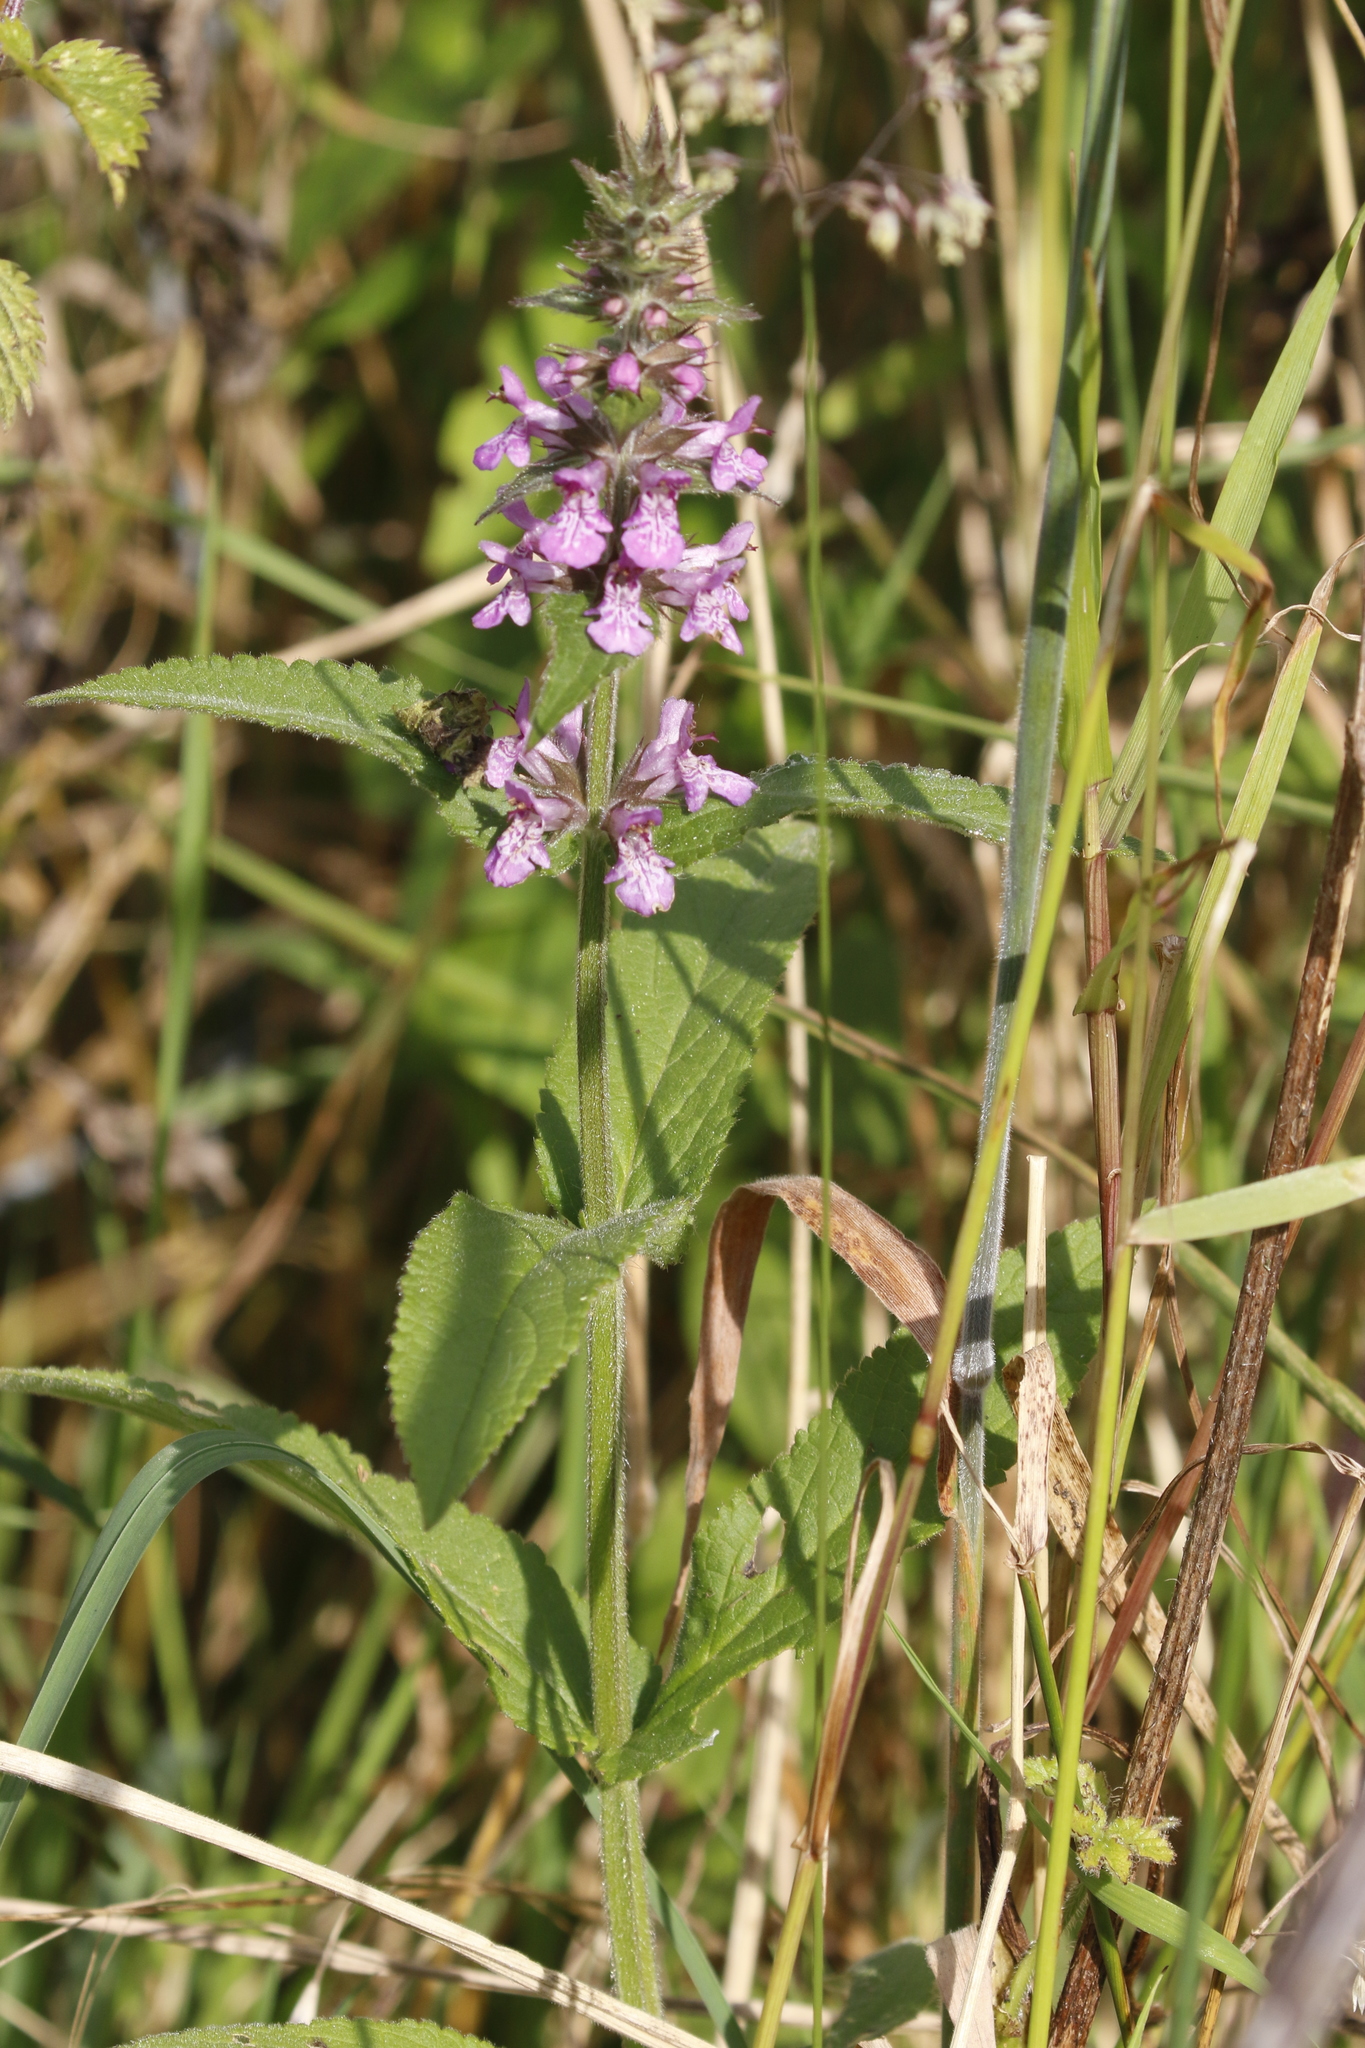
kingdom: Plantae
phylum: Tracheophyta
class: Magnoliopsida
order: Lamiales
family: Lamiaceae
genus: Stachys
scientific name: Stachys palustris
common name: Marsh woundwort
